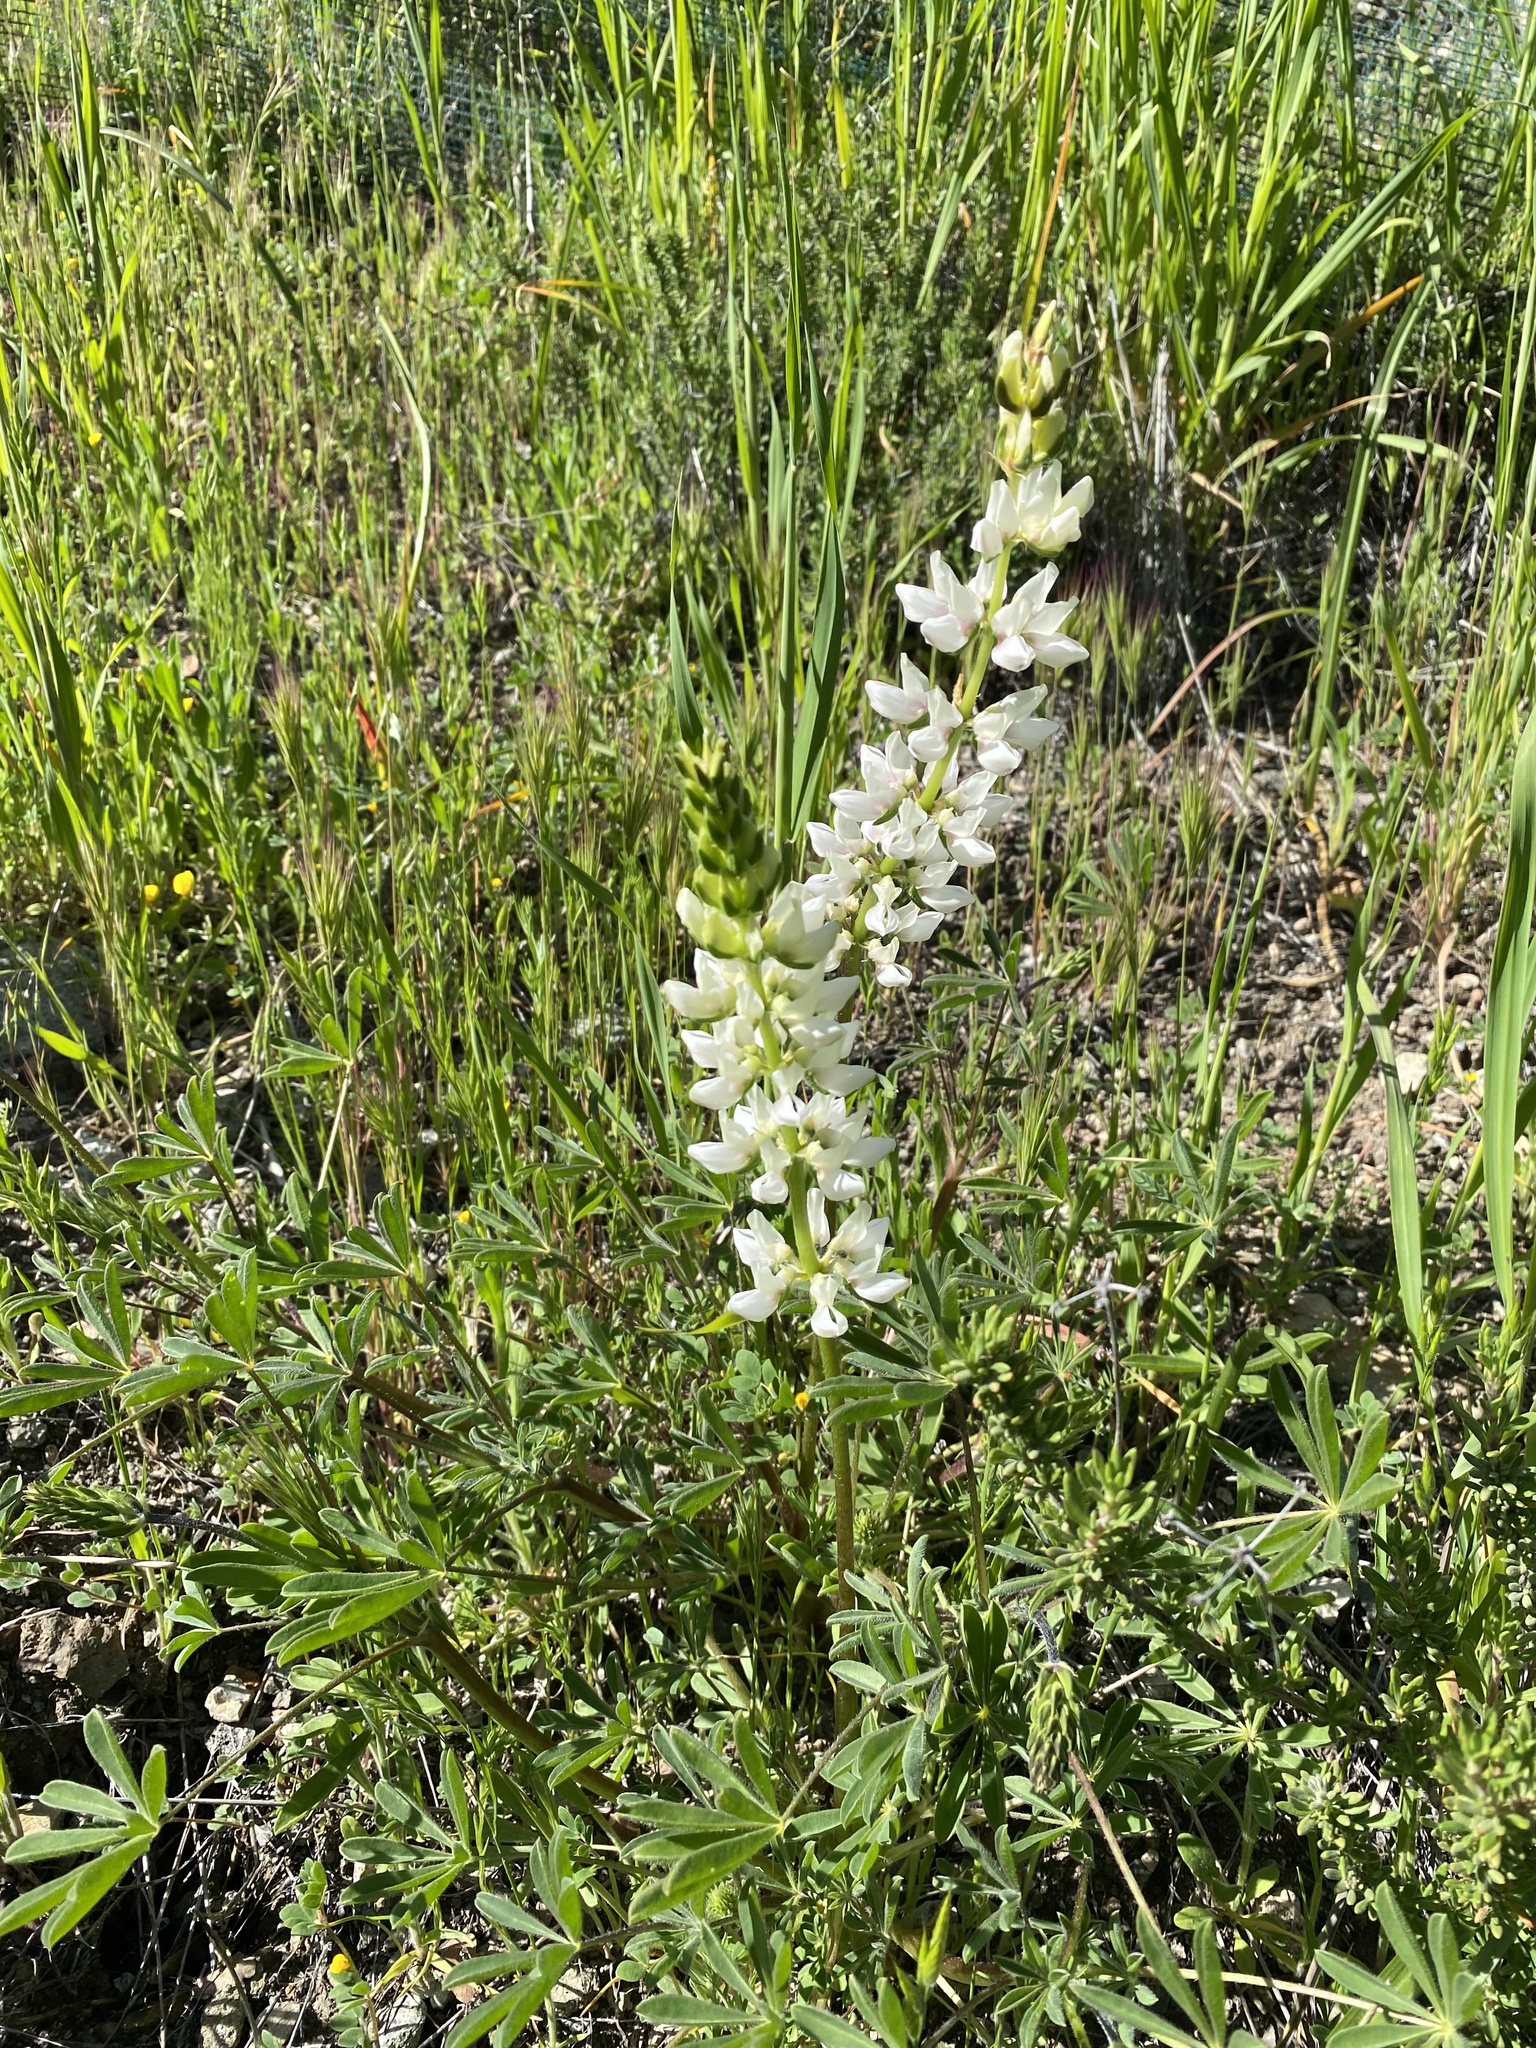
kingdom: Plantae
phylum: Tracheophyta
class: Magnoliopsida
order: Fabales
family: Fabaceae
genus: Lupinus
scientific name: Lupinus microcarpus
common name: Chick lupine
